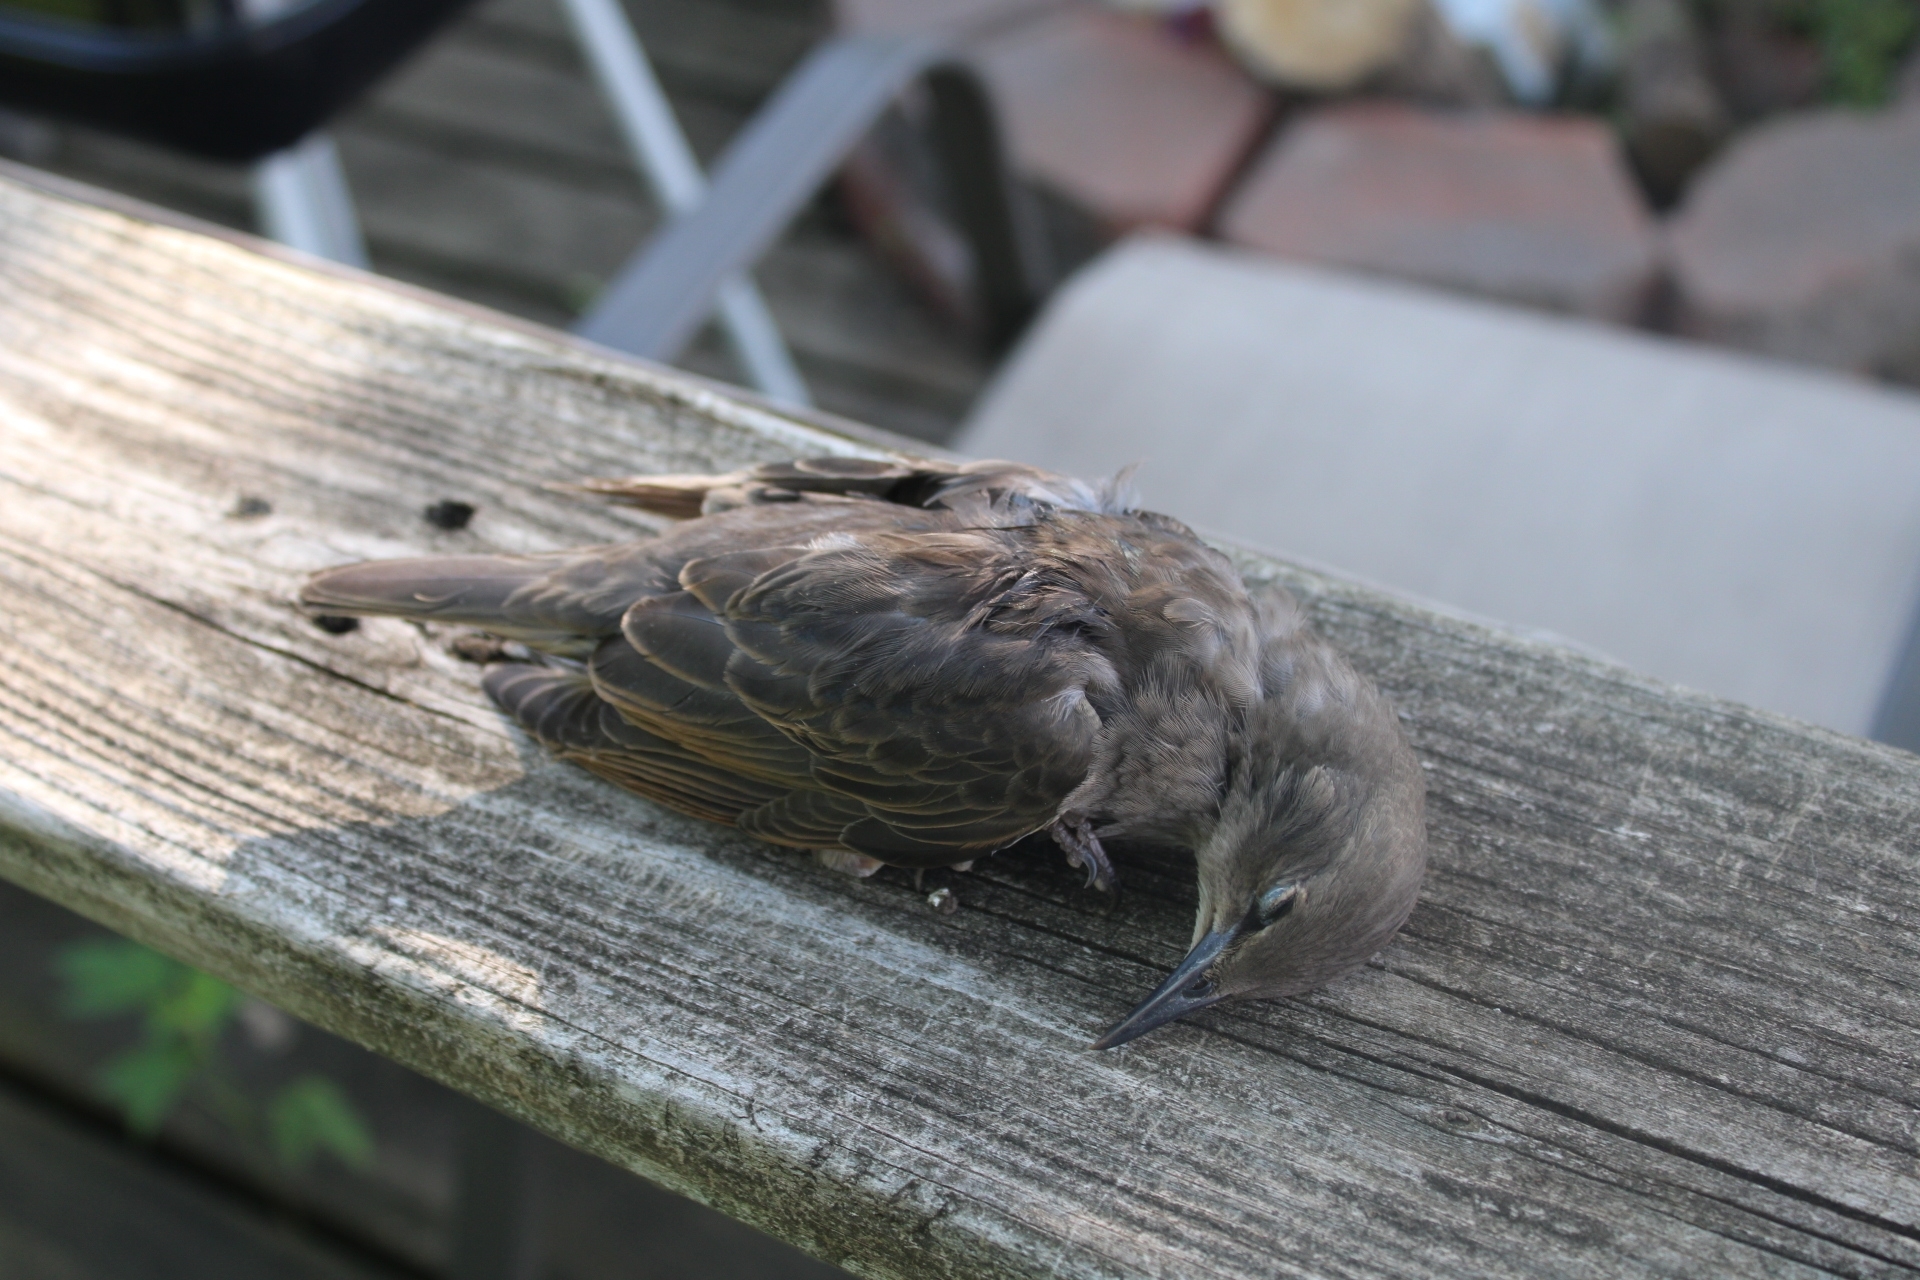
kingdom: Animalia
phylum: Chordata
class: Aves
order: Passeriformes
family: Sturnidae
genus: Sturnus
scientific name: Sturnus vulgaris
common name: Common starling
